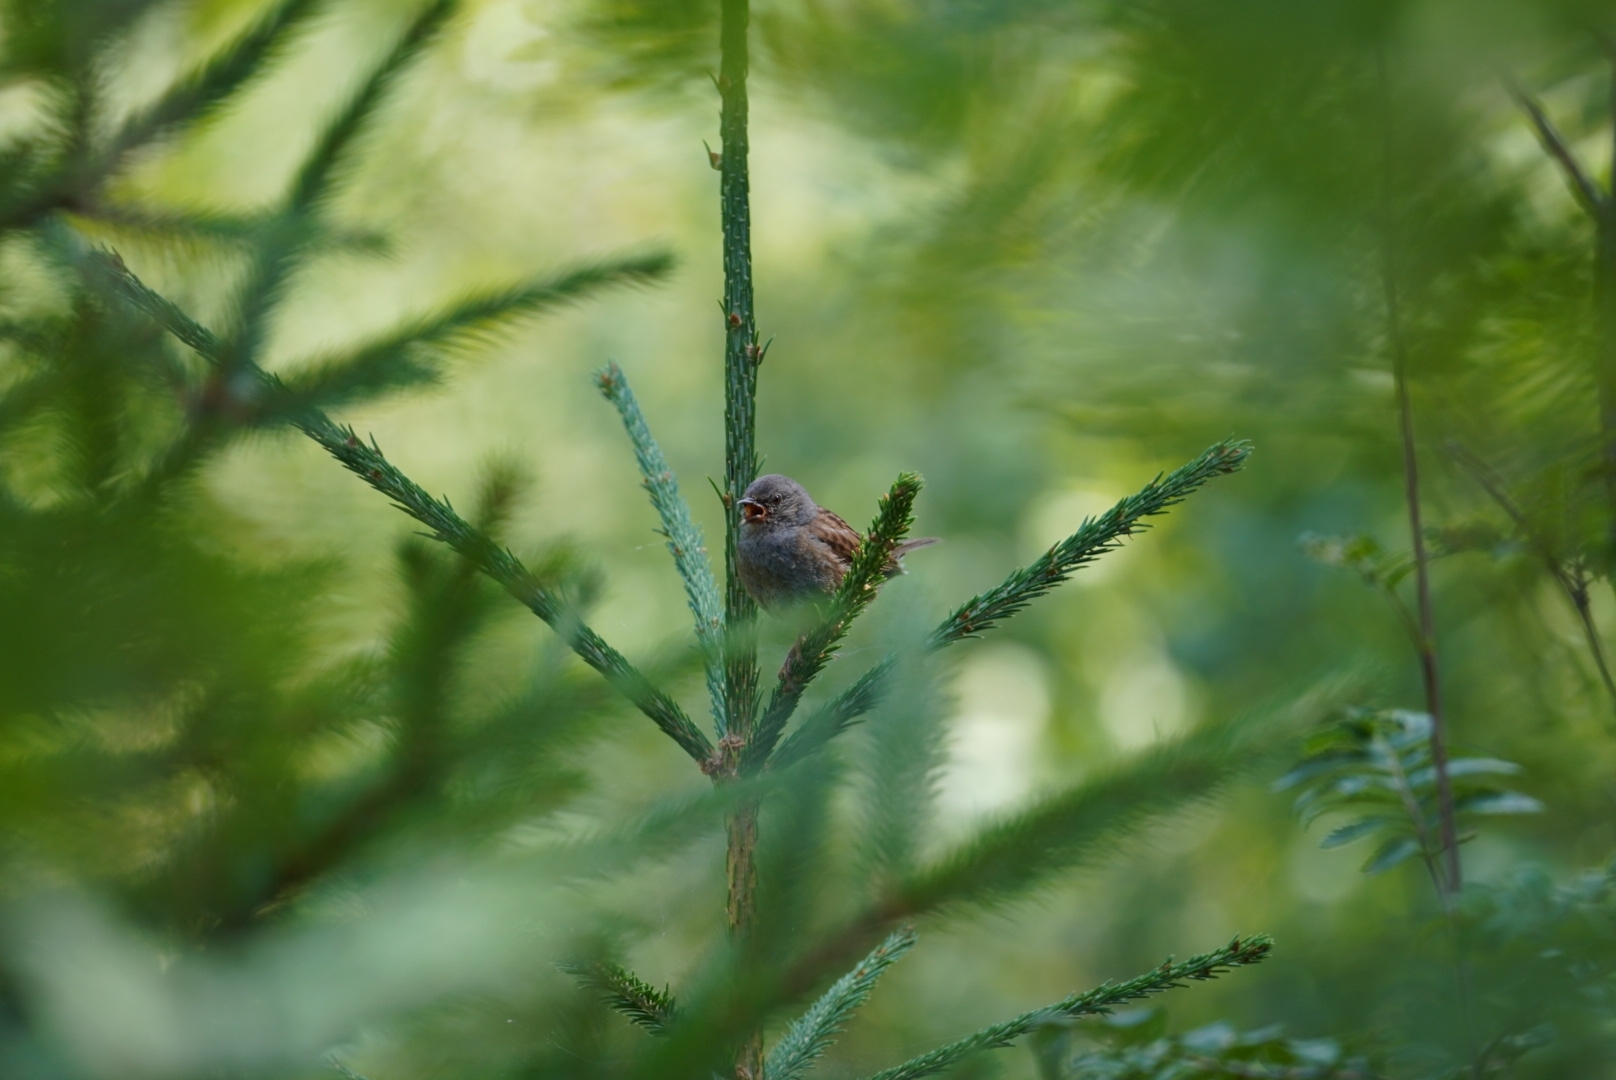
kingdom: Animalia
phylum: Chordata
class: Aves
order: Passeriformes
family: Prunellidae
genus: Prunella
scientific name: Prunella modularis
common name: Dunnock
